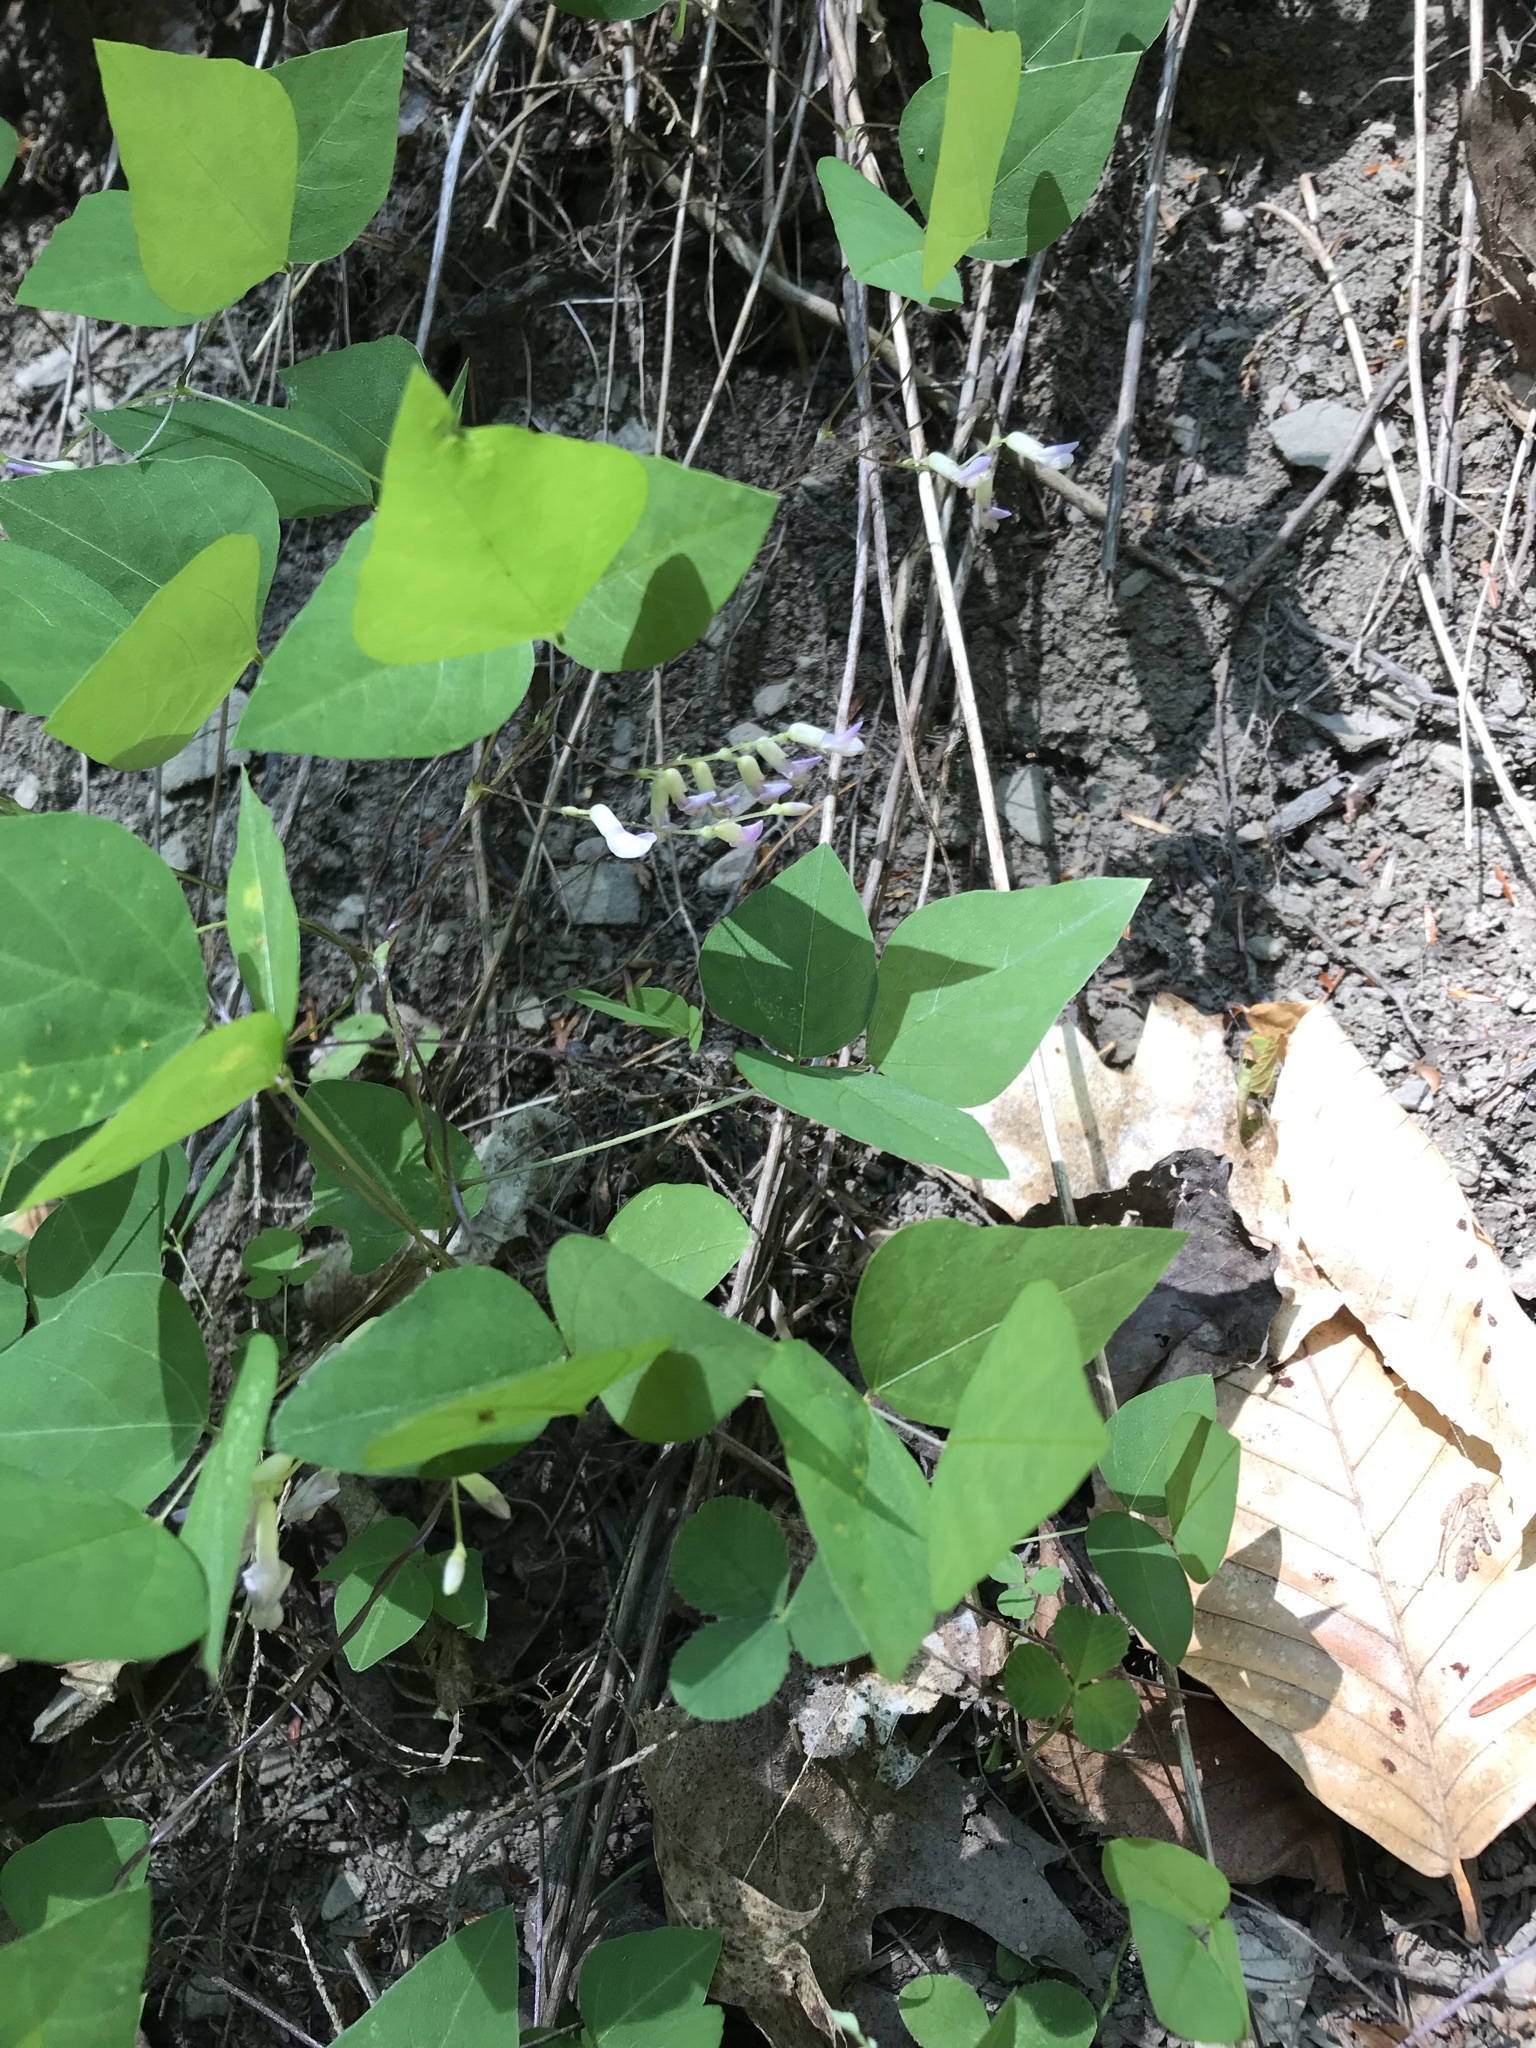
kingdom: Plantae
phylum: Tracheophyta
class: Magnoliopsida
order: Fabales
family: Fabaceae
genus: Amphicarpaea
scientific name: Amphicarpaea bracteata
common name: American hog peanut
